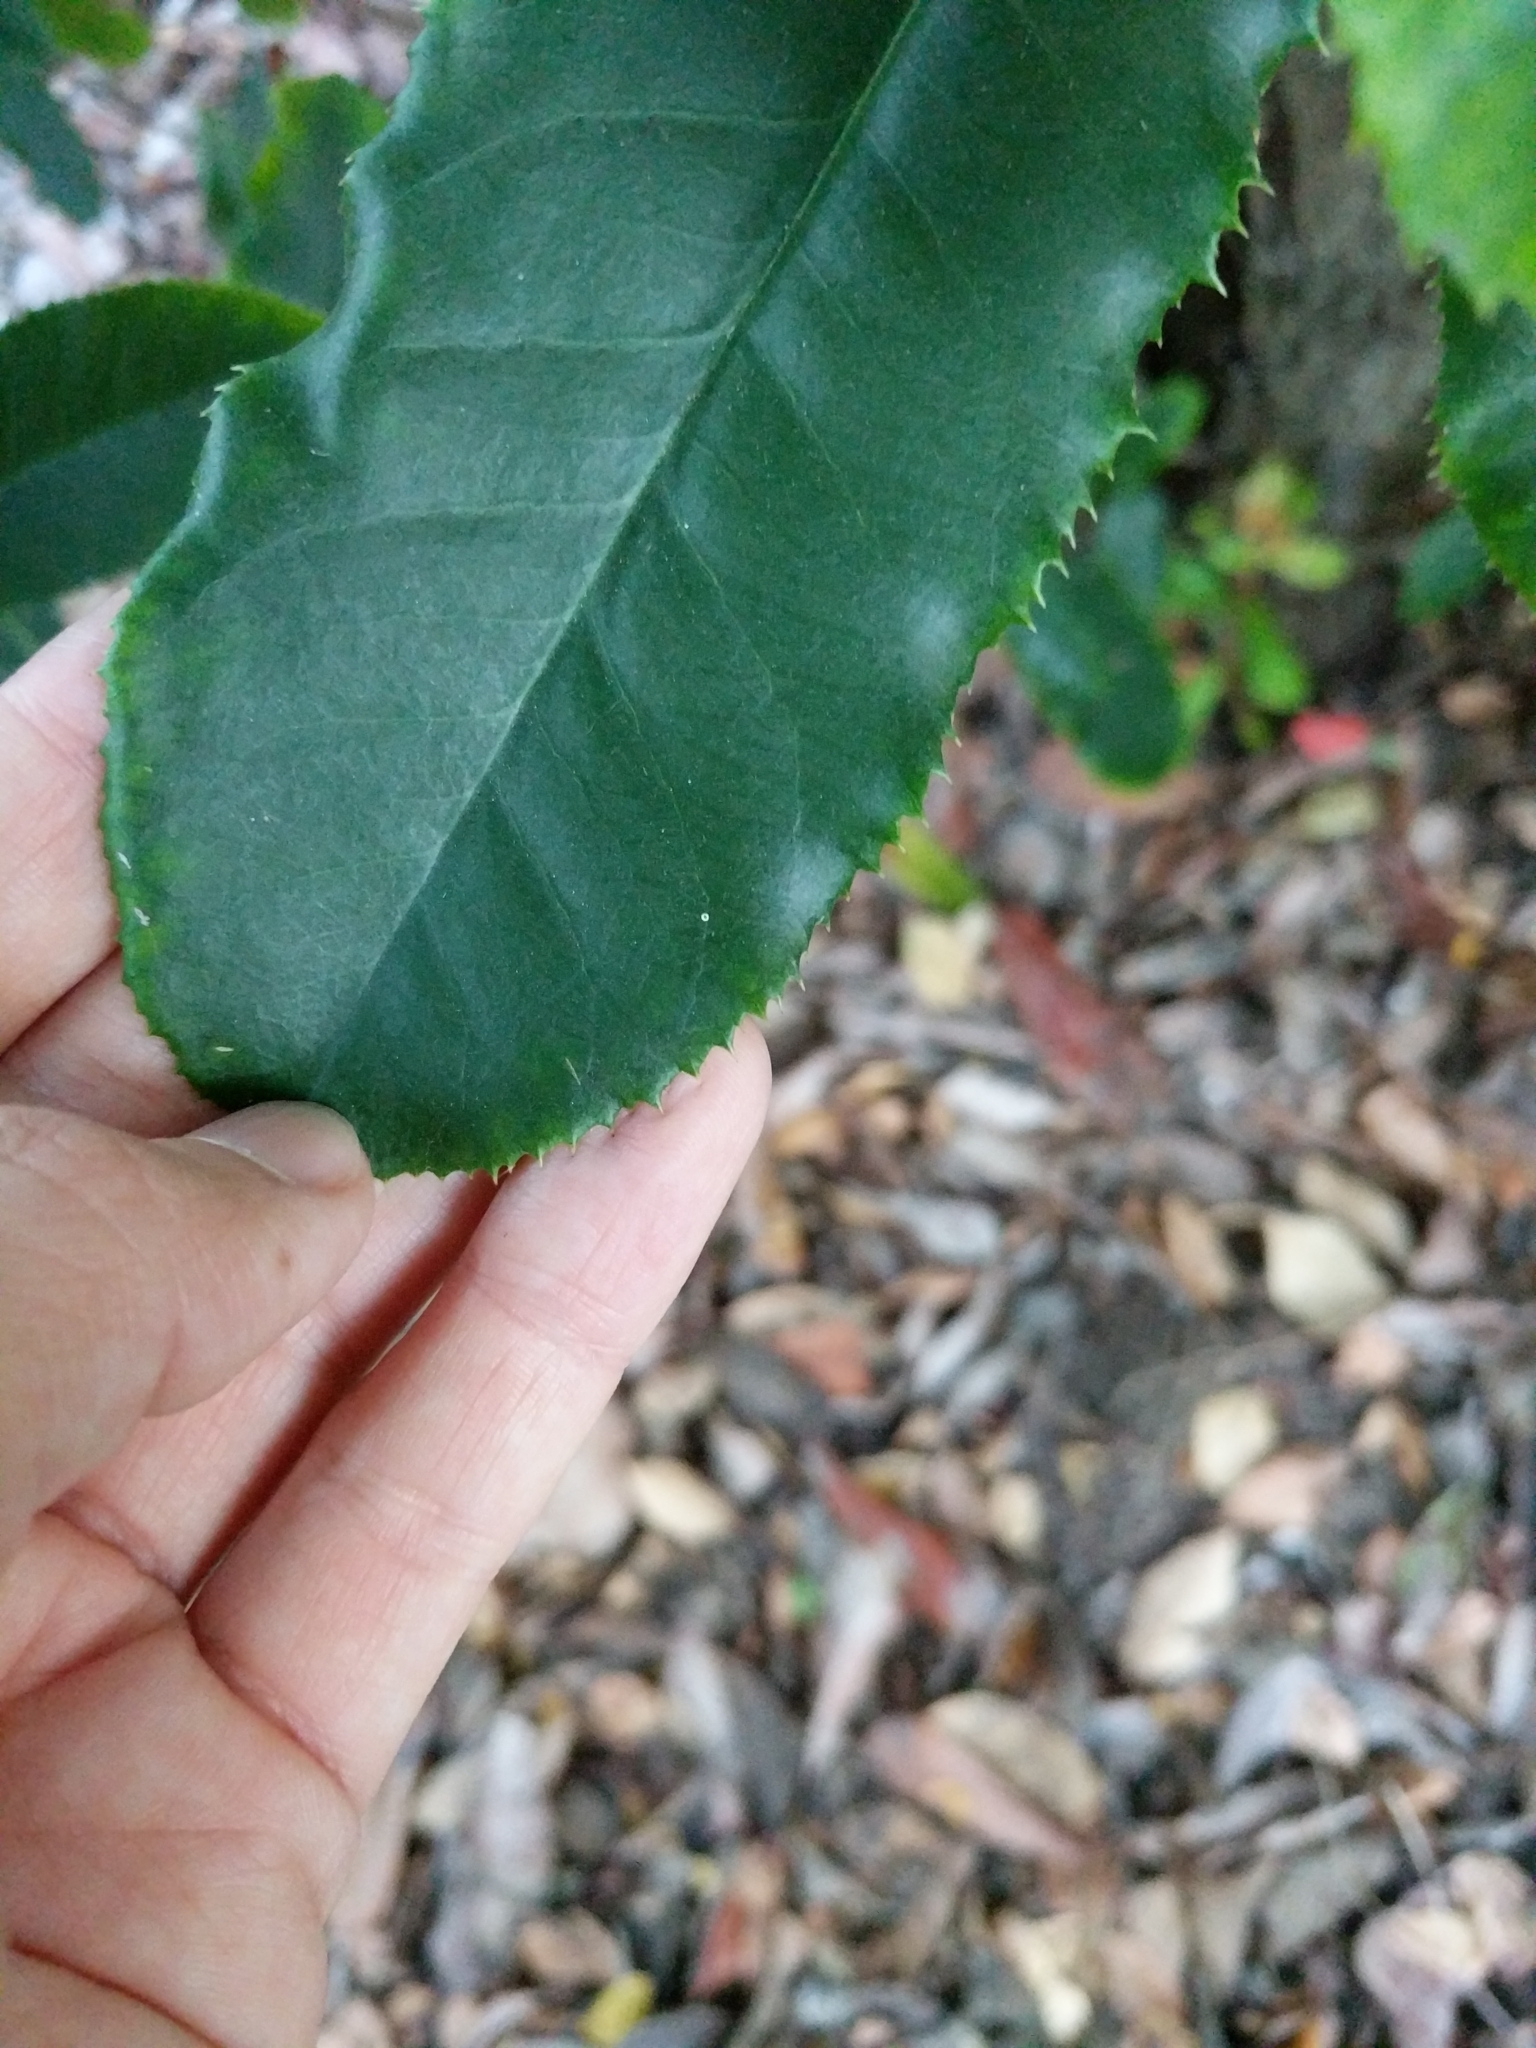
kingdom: Plantae
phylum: Tracheophyta
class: Magnoliopsida
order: Rosales
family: Rosaceae
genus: Photinia
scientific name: Photinia serratifolia
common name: Taiwanese photinia
